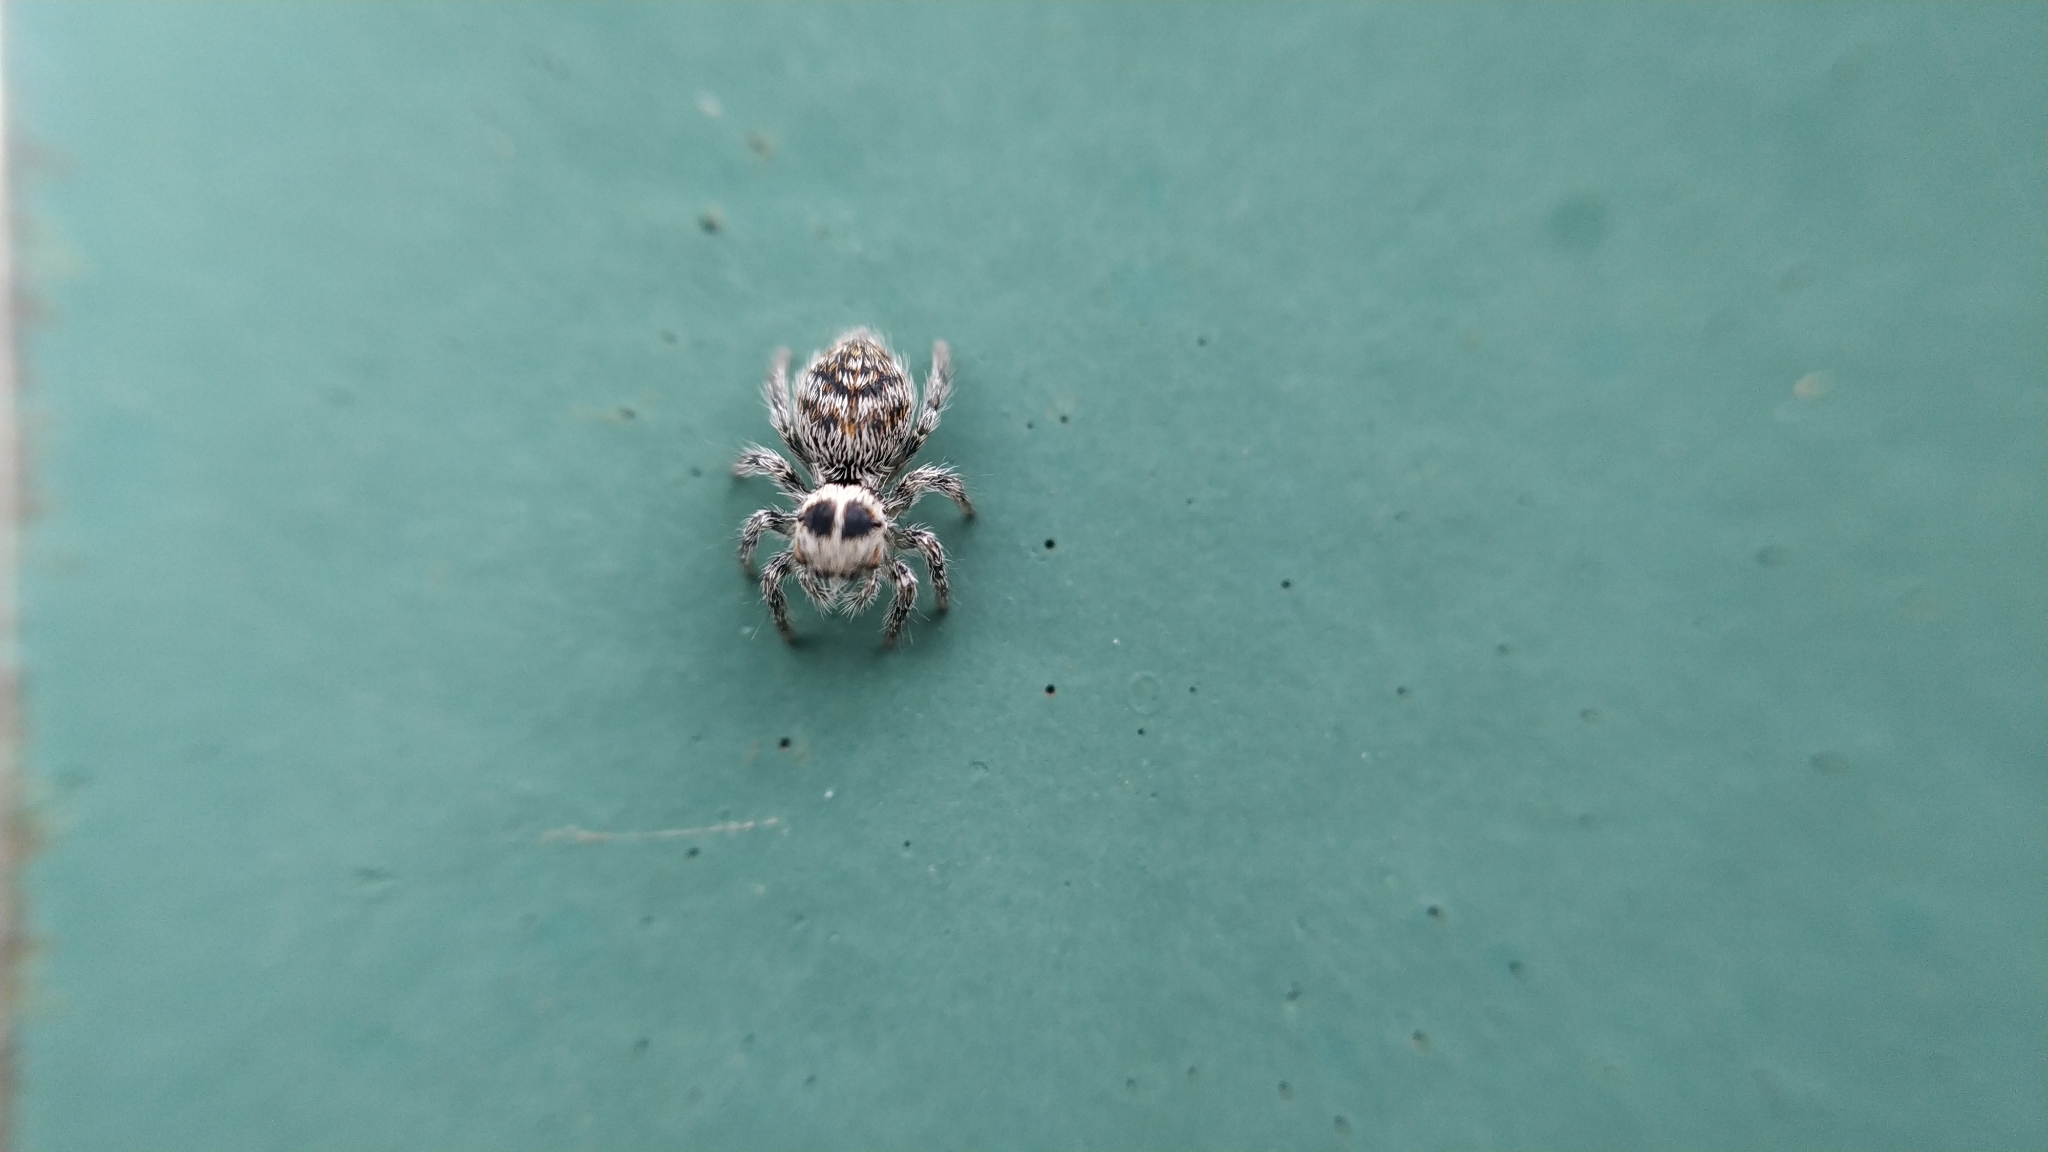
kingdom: Animalia
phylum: Arthropoda
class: Arachnida
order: Araneae
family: Salticidae
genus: Philaeus
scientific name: Philaeus chrysops
